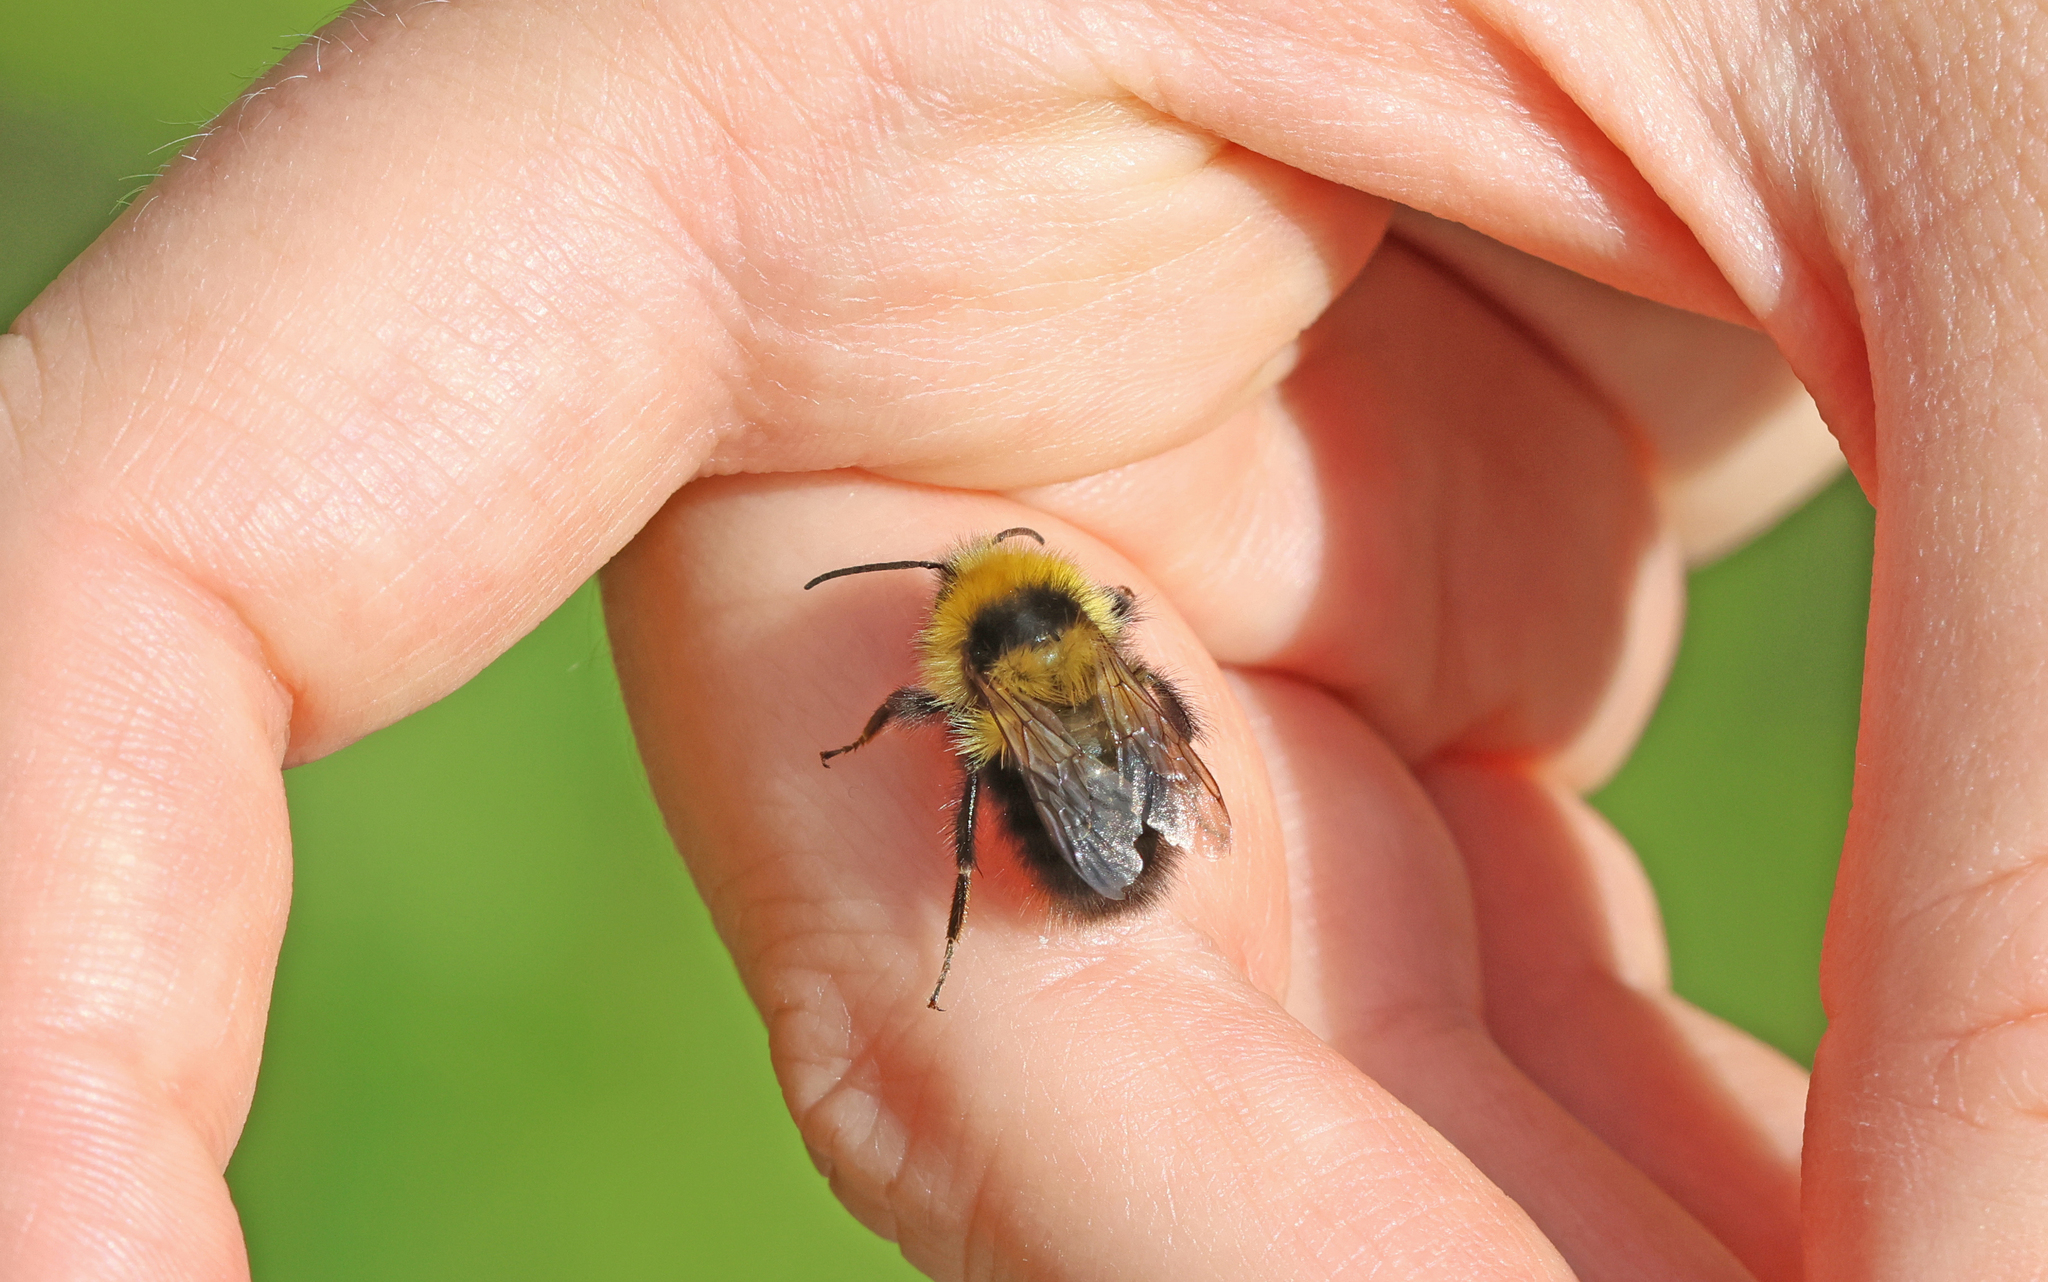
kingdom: Animalia
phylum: Arthropoda
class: Insecta
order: Hymenoptera
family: Apidae
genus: Bombus
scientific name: Bombus jonellus
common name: Heath humble-bee
